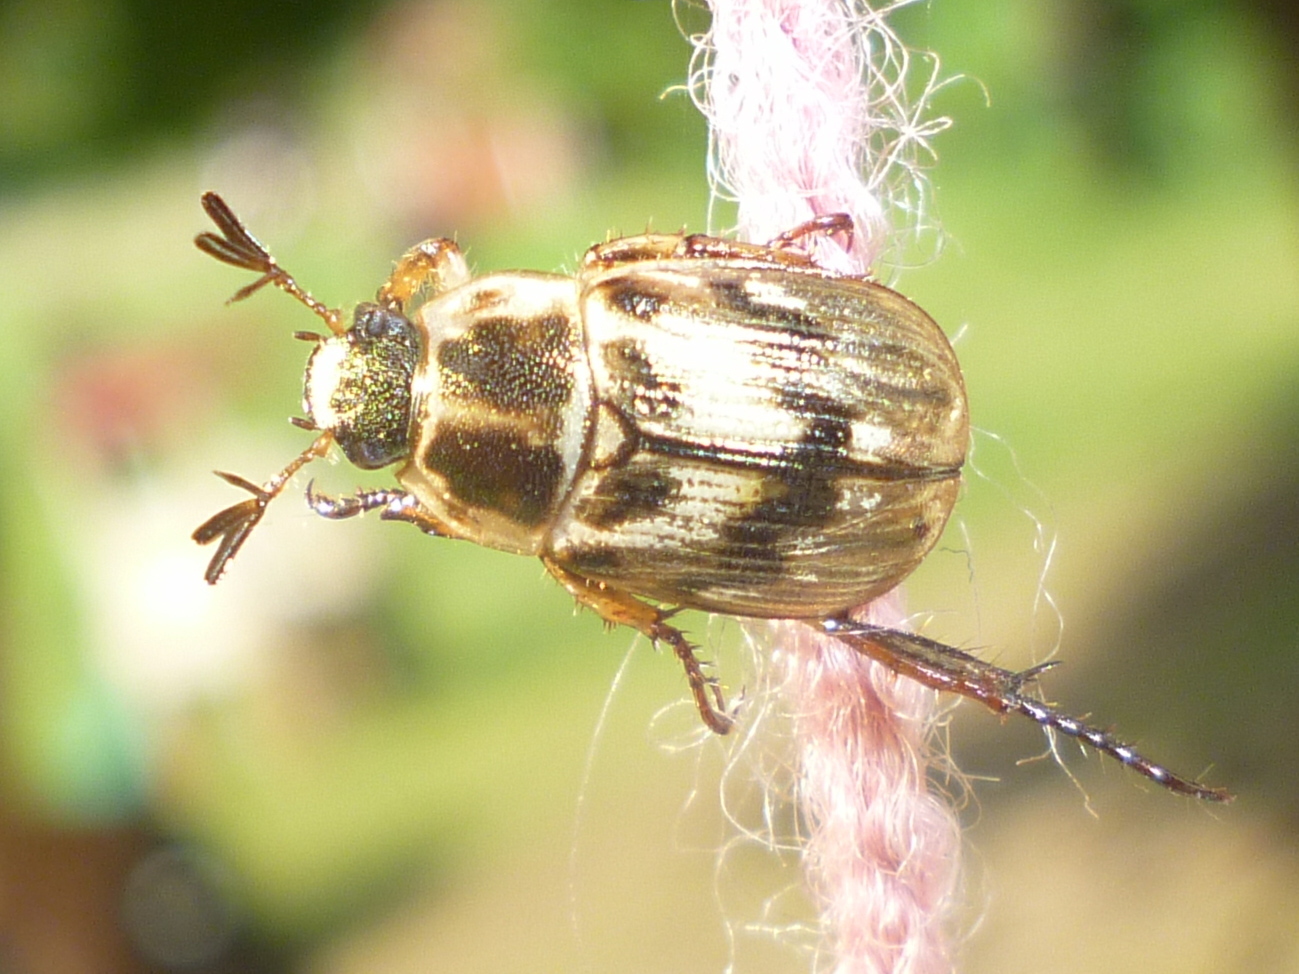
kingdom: Animalia
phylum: Arthropoda
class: Insecta
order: Coleoptera
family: Scarabaeidae
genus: Exomala
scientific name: Exomala orientalis
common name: Oriental beetle
